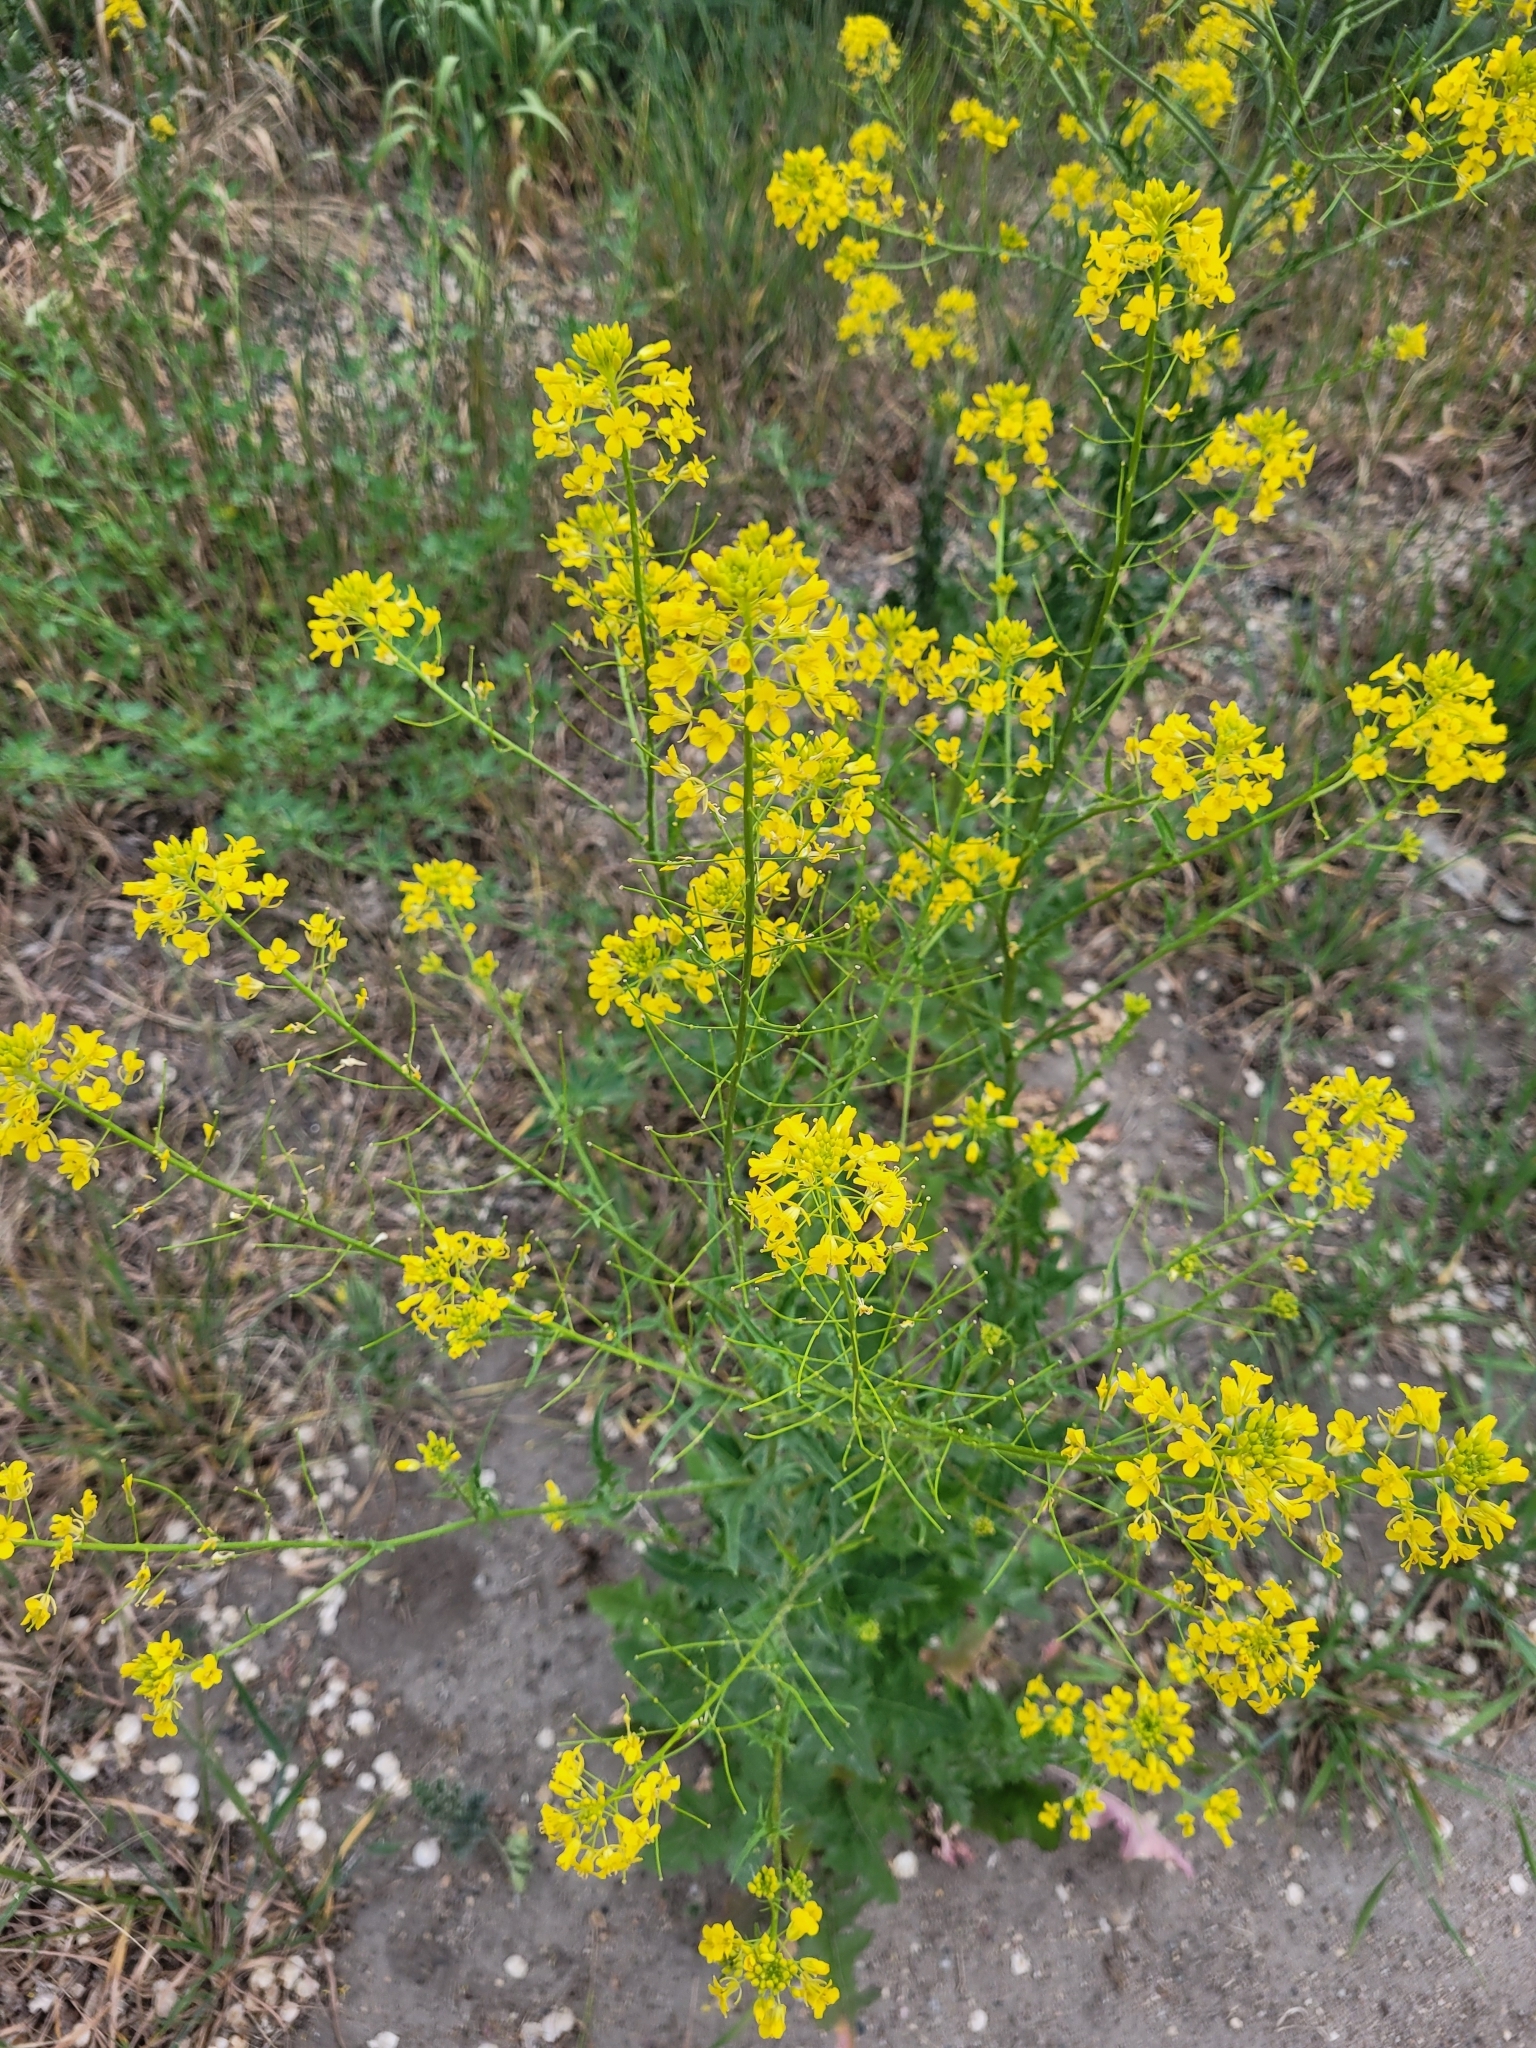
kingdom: Plantae
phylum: Tracheophyta
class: Magnoliopsida
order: Brassicales
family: Brassicaceae
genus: Sisymbrium
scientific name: Sisymbrium loeselii
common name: False london-rocket
